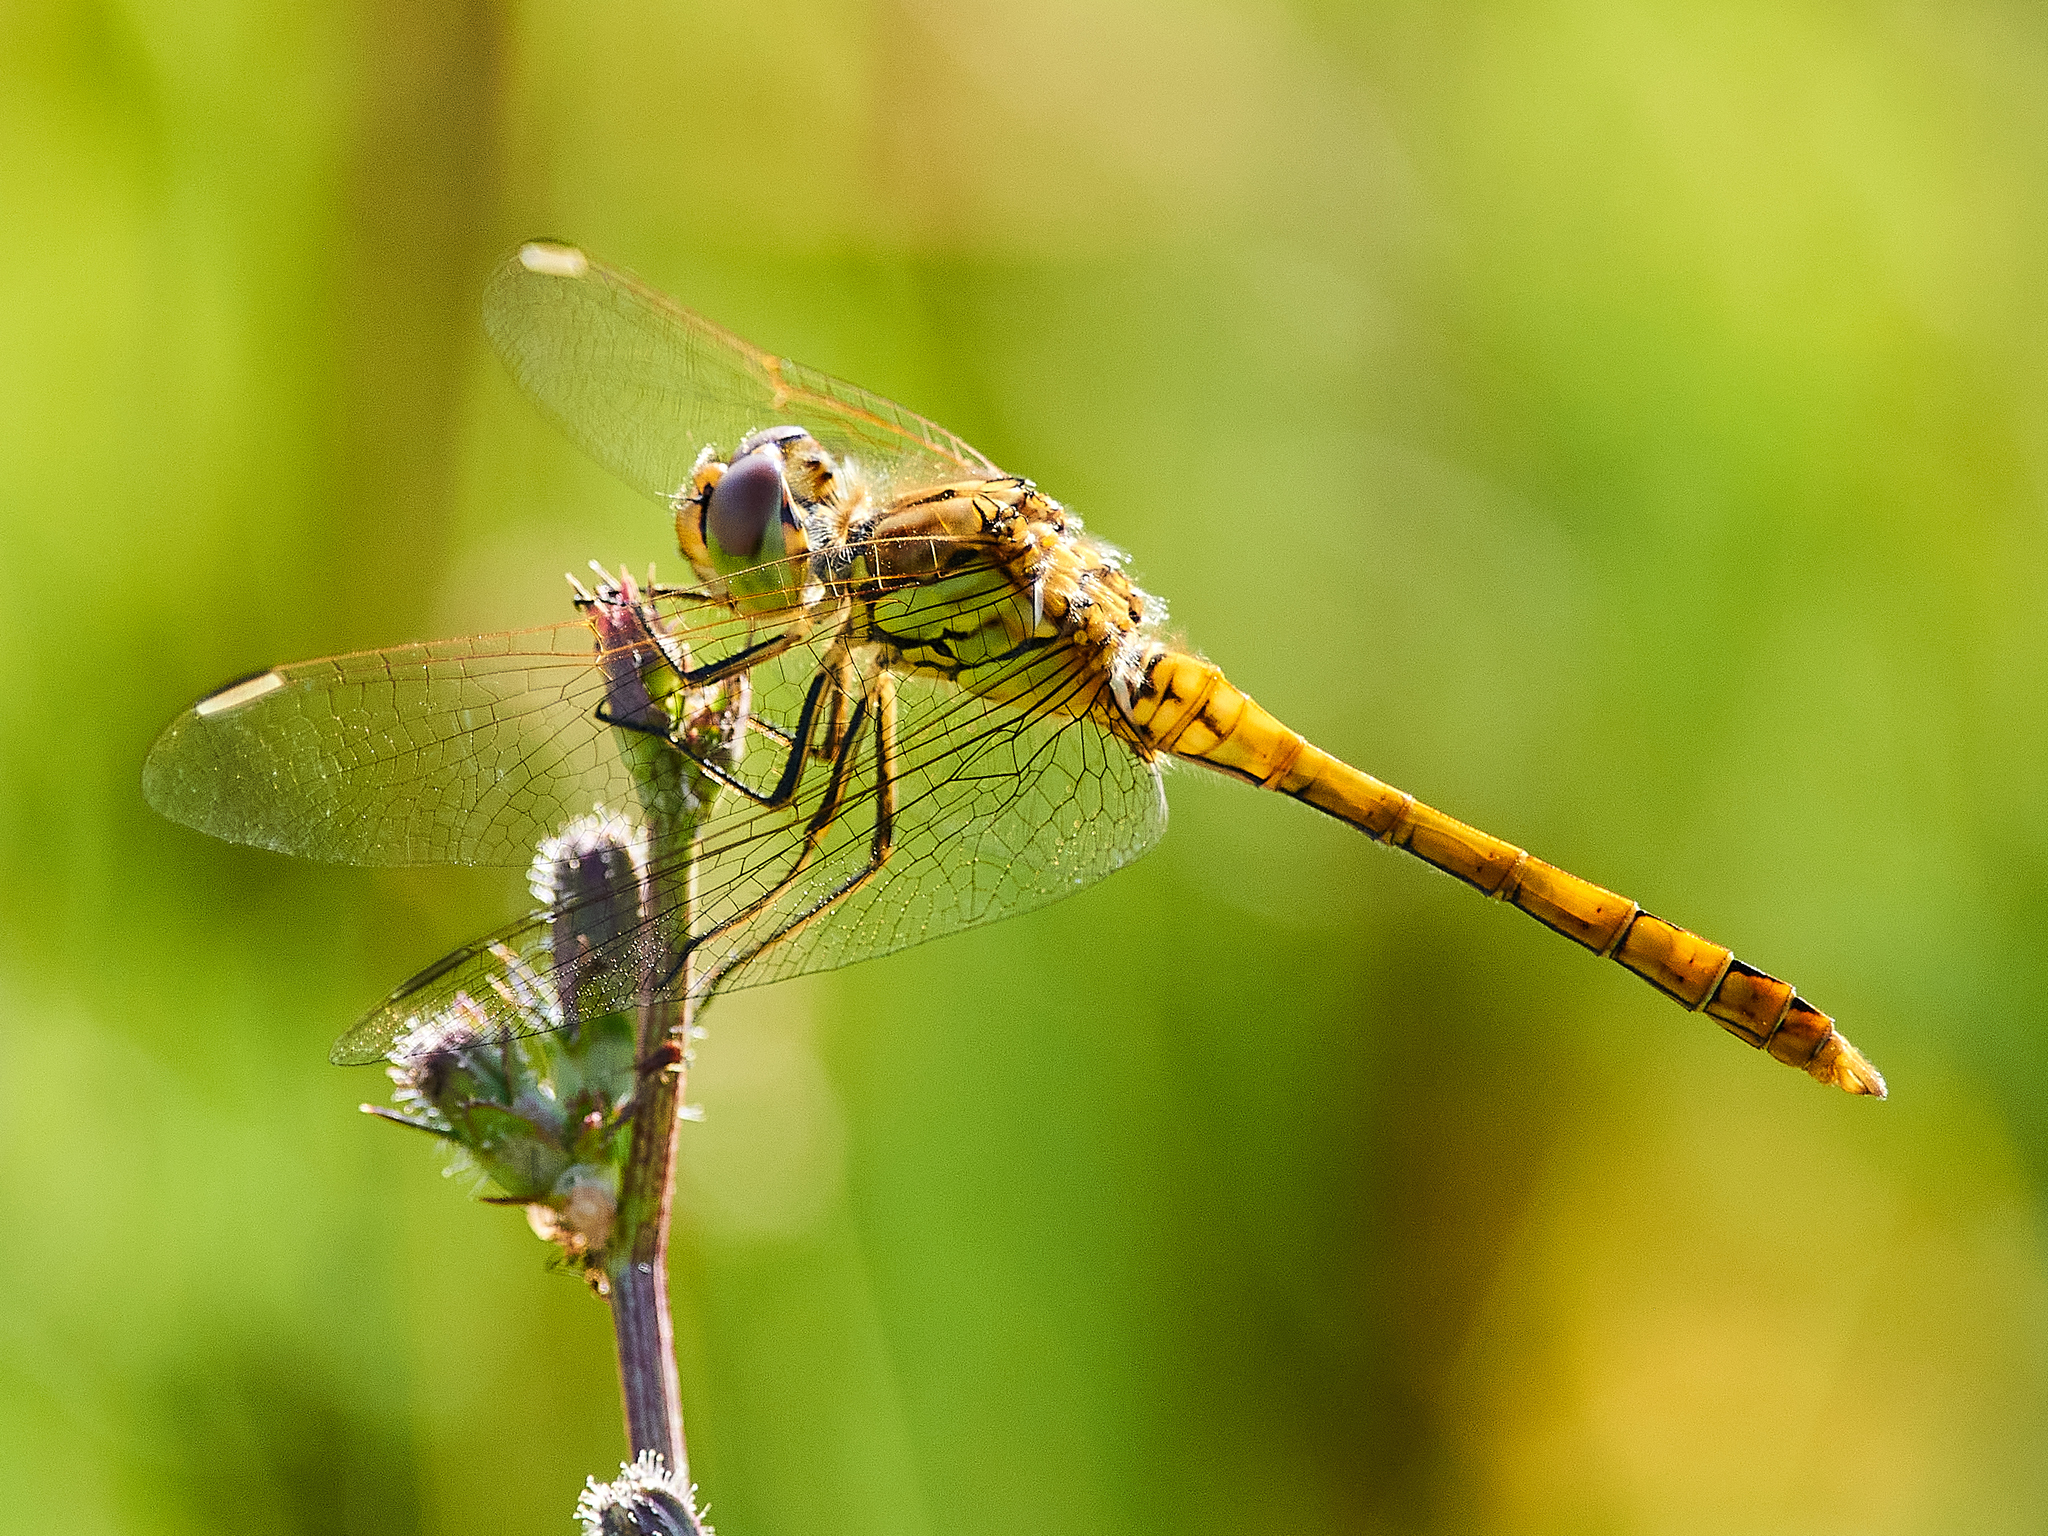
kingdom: Animalia
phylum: Arthropoda
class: Insecta
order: Odonata
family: Libellulidae
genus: Sympetrum
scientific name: Sympetrum vulgatum
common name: Vagrant darter
